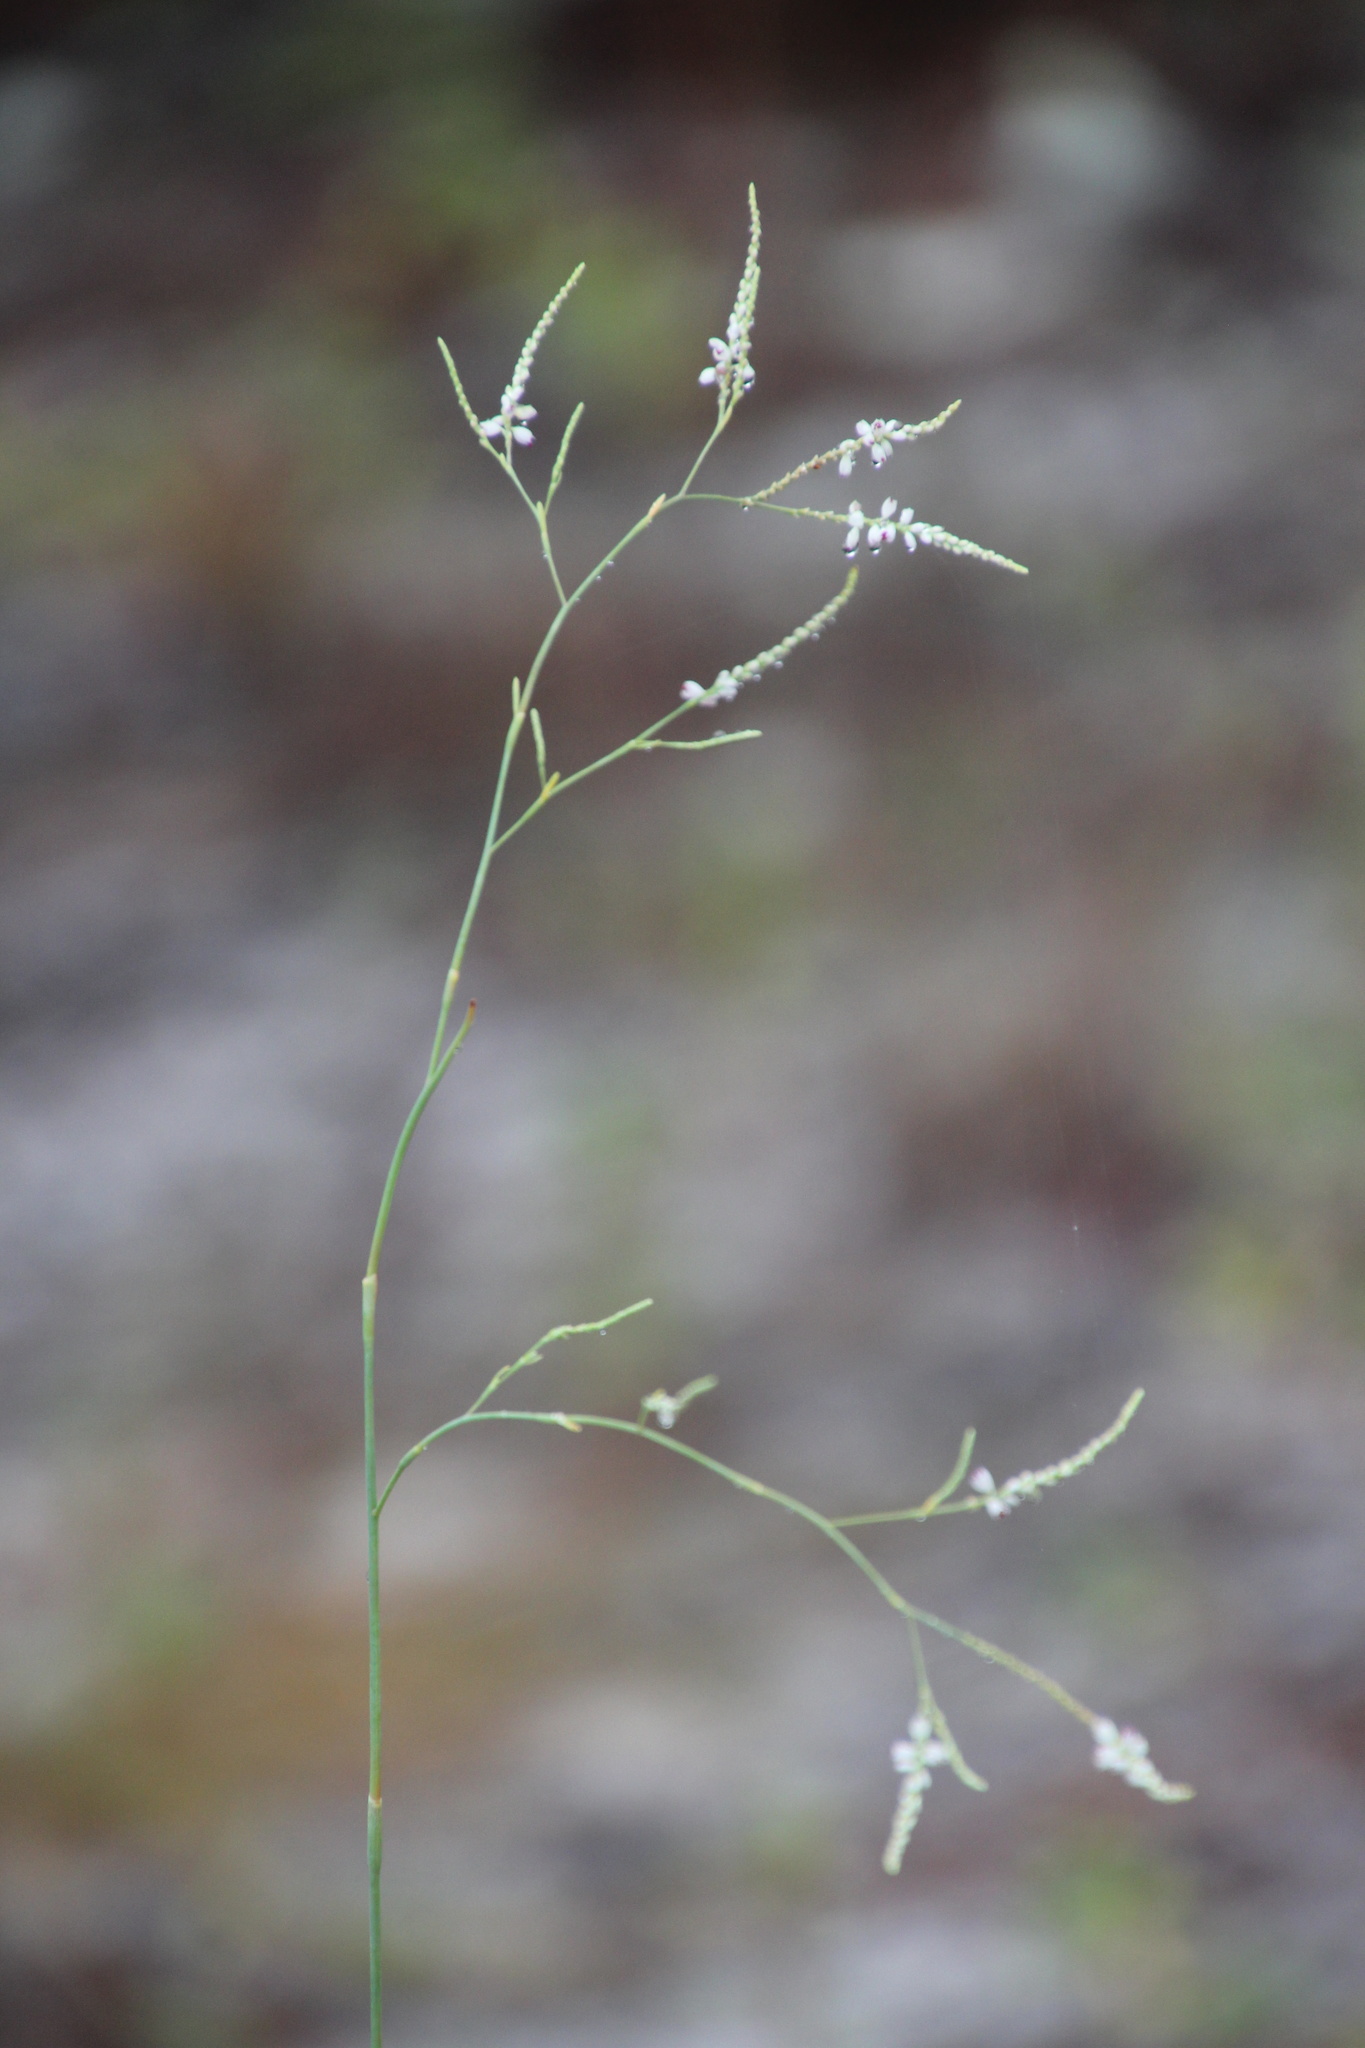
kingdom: Plantae
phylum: Tracheophyta
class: Magnoliopsida
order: Caryophyllales
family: Polygonaceae
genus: Polygonella
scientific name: Polygonella gracilis
